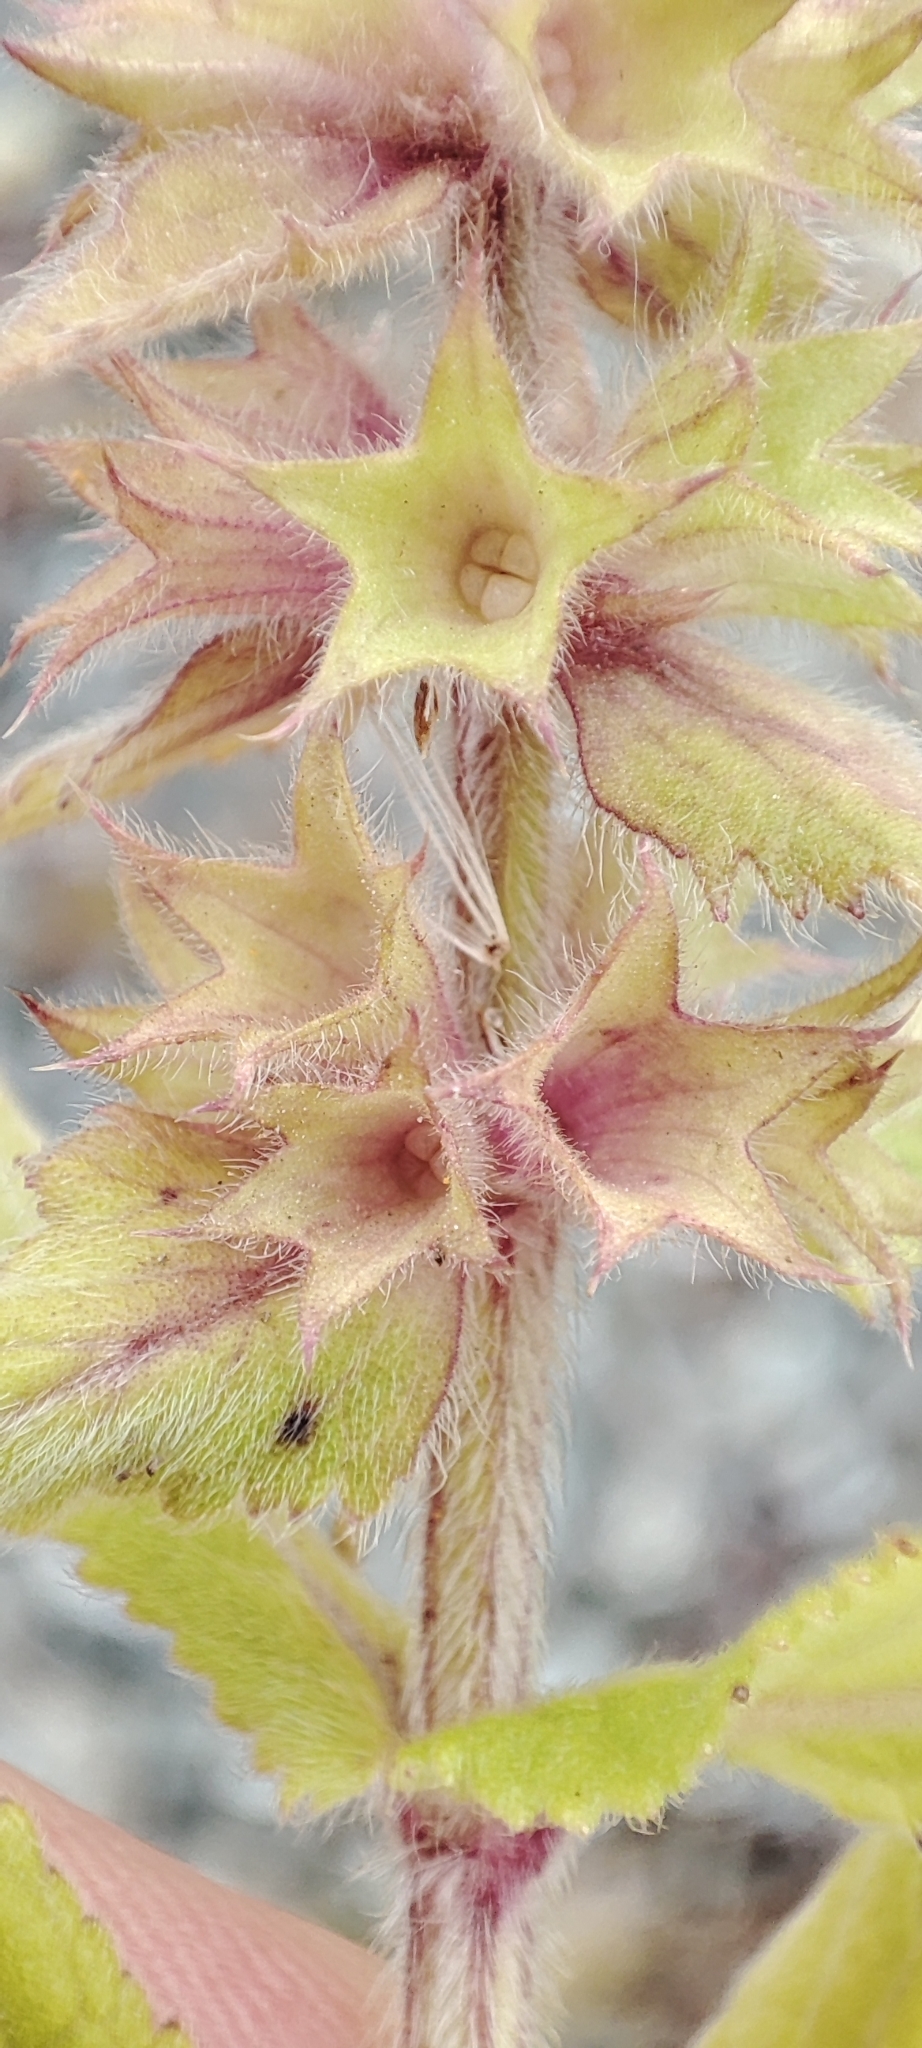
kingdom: Plantae
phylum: Tracheophyta
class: Magnoliopsida
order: Lamiales
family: Lamiaceae
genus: Stachys
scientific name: Stachys palustris
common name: Marsh woundwort
